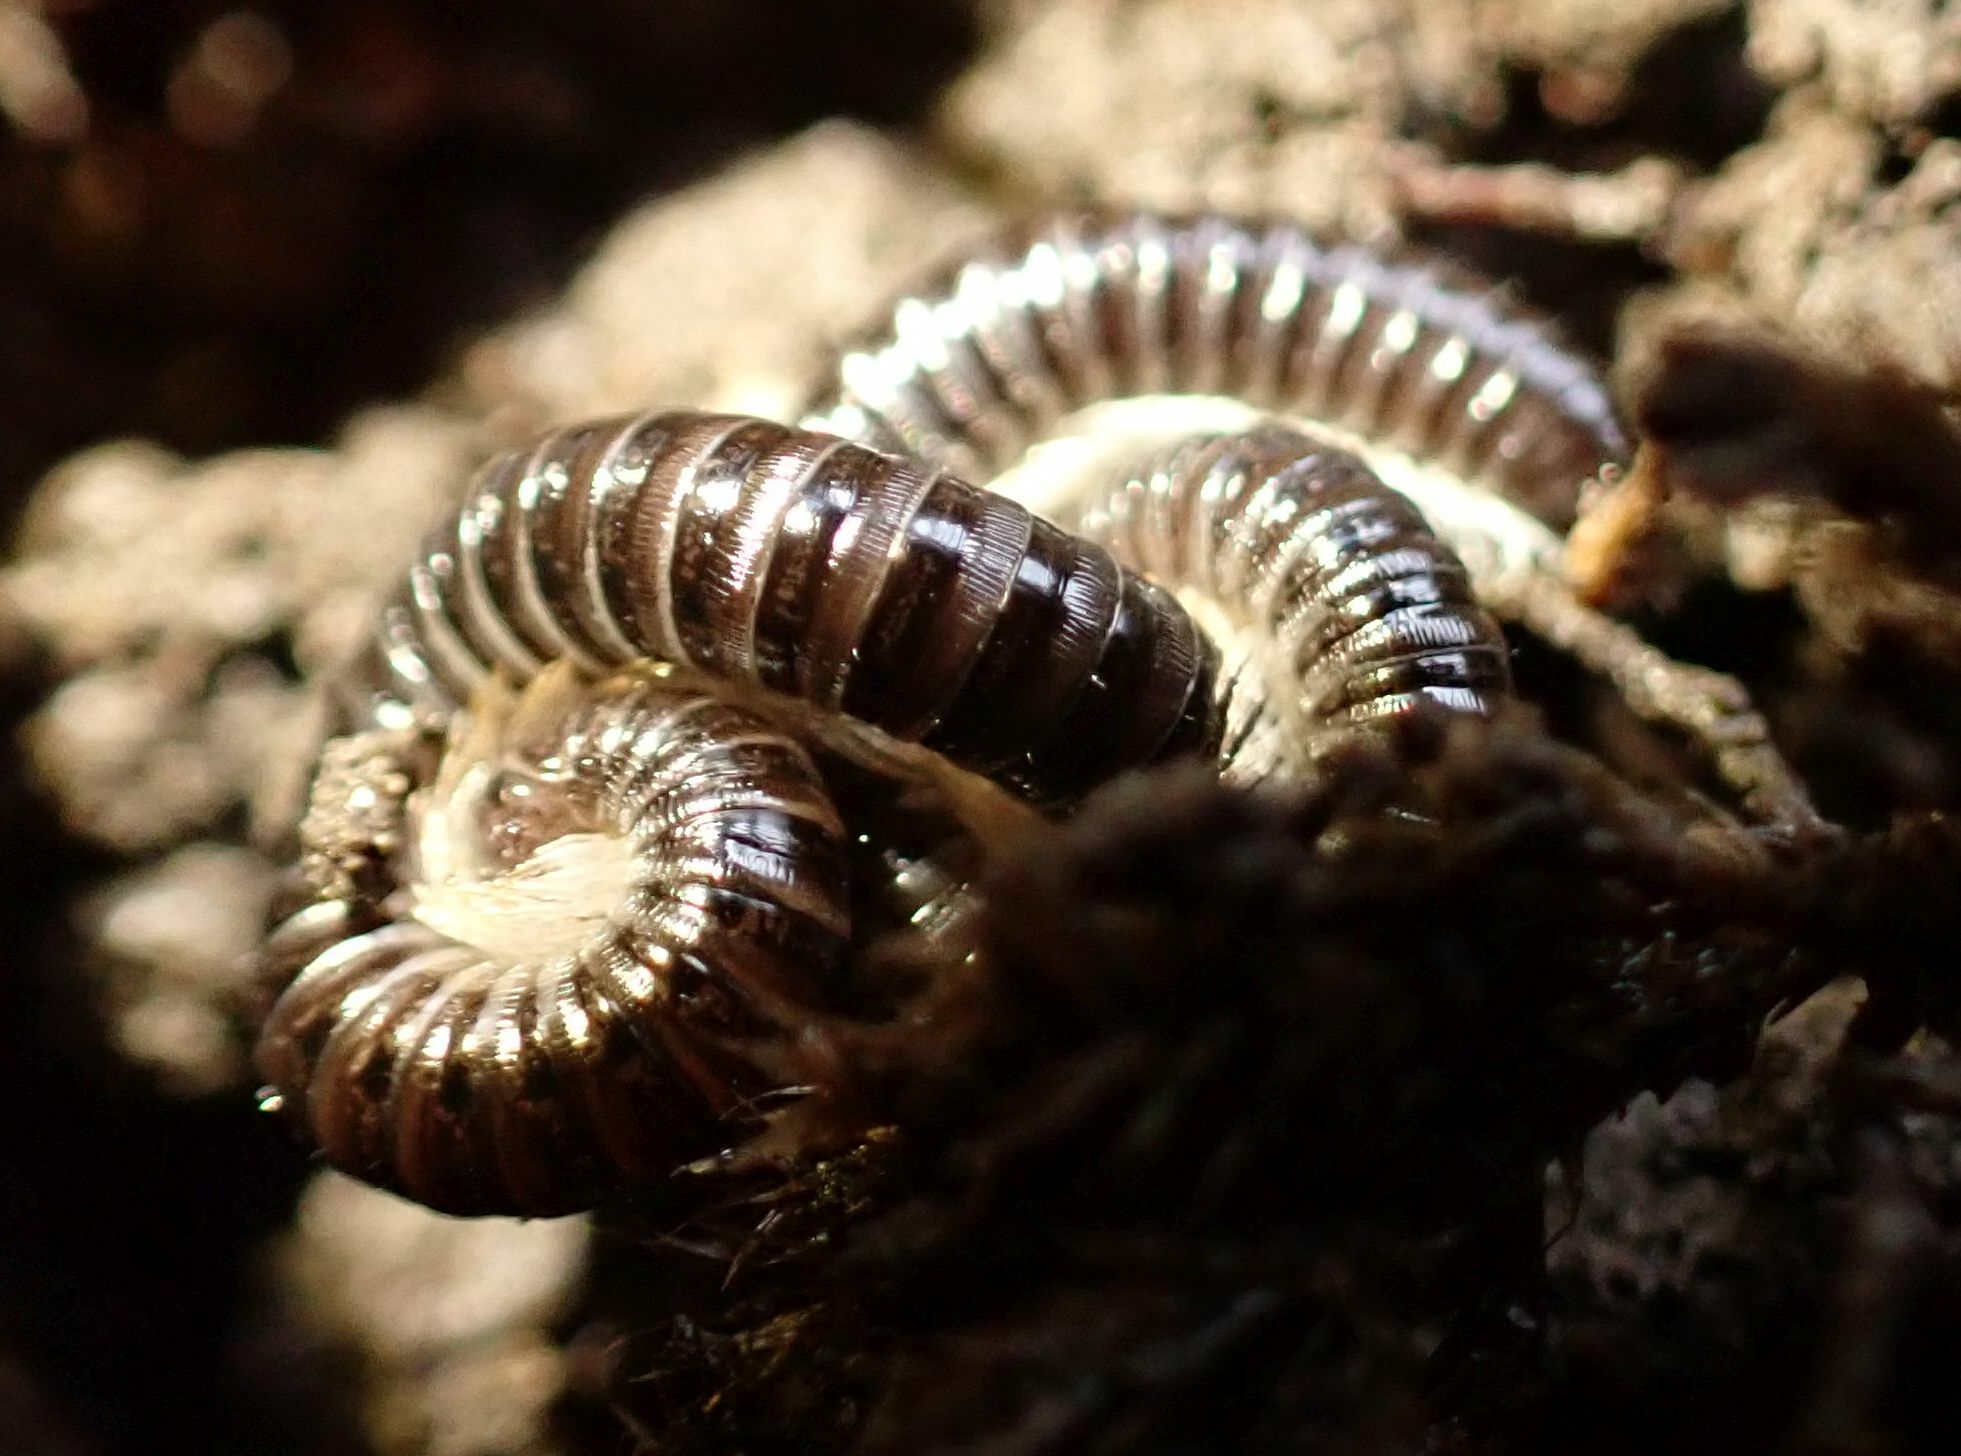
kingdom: Animalia
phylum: Arthropoda
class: Diplopoda
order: Julida
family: Julidae
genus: Tachypodoiulus
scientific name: Tachypodoiulus niger
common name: White-legged snake millipede
